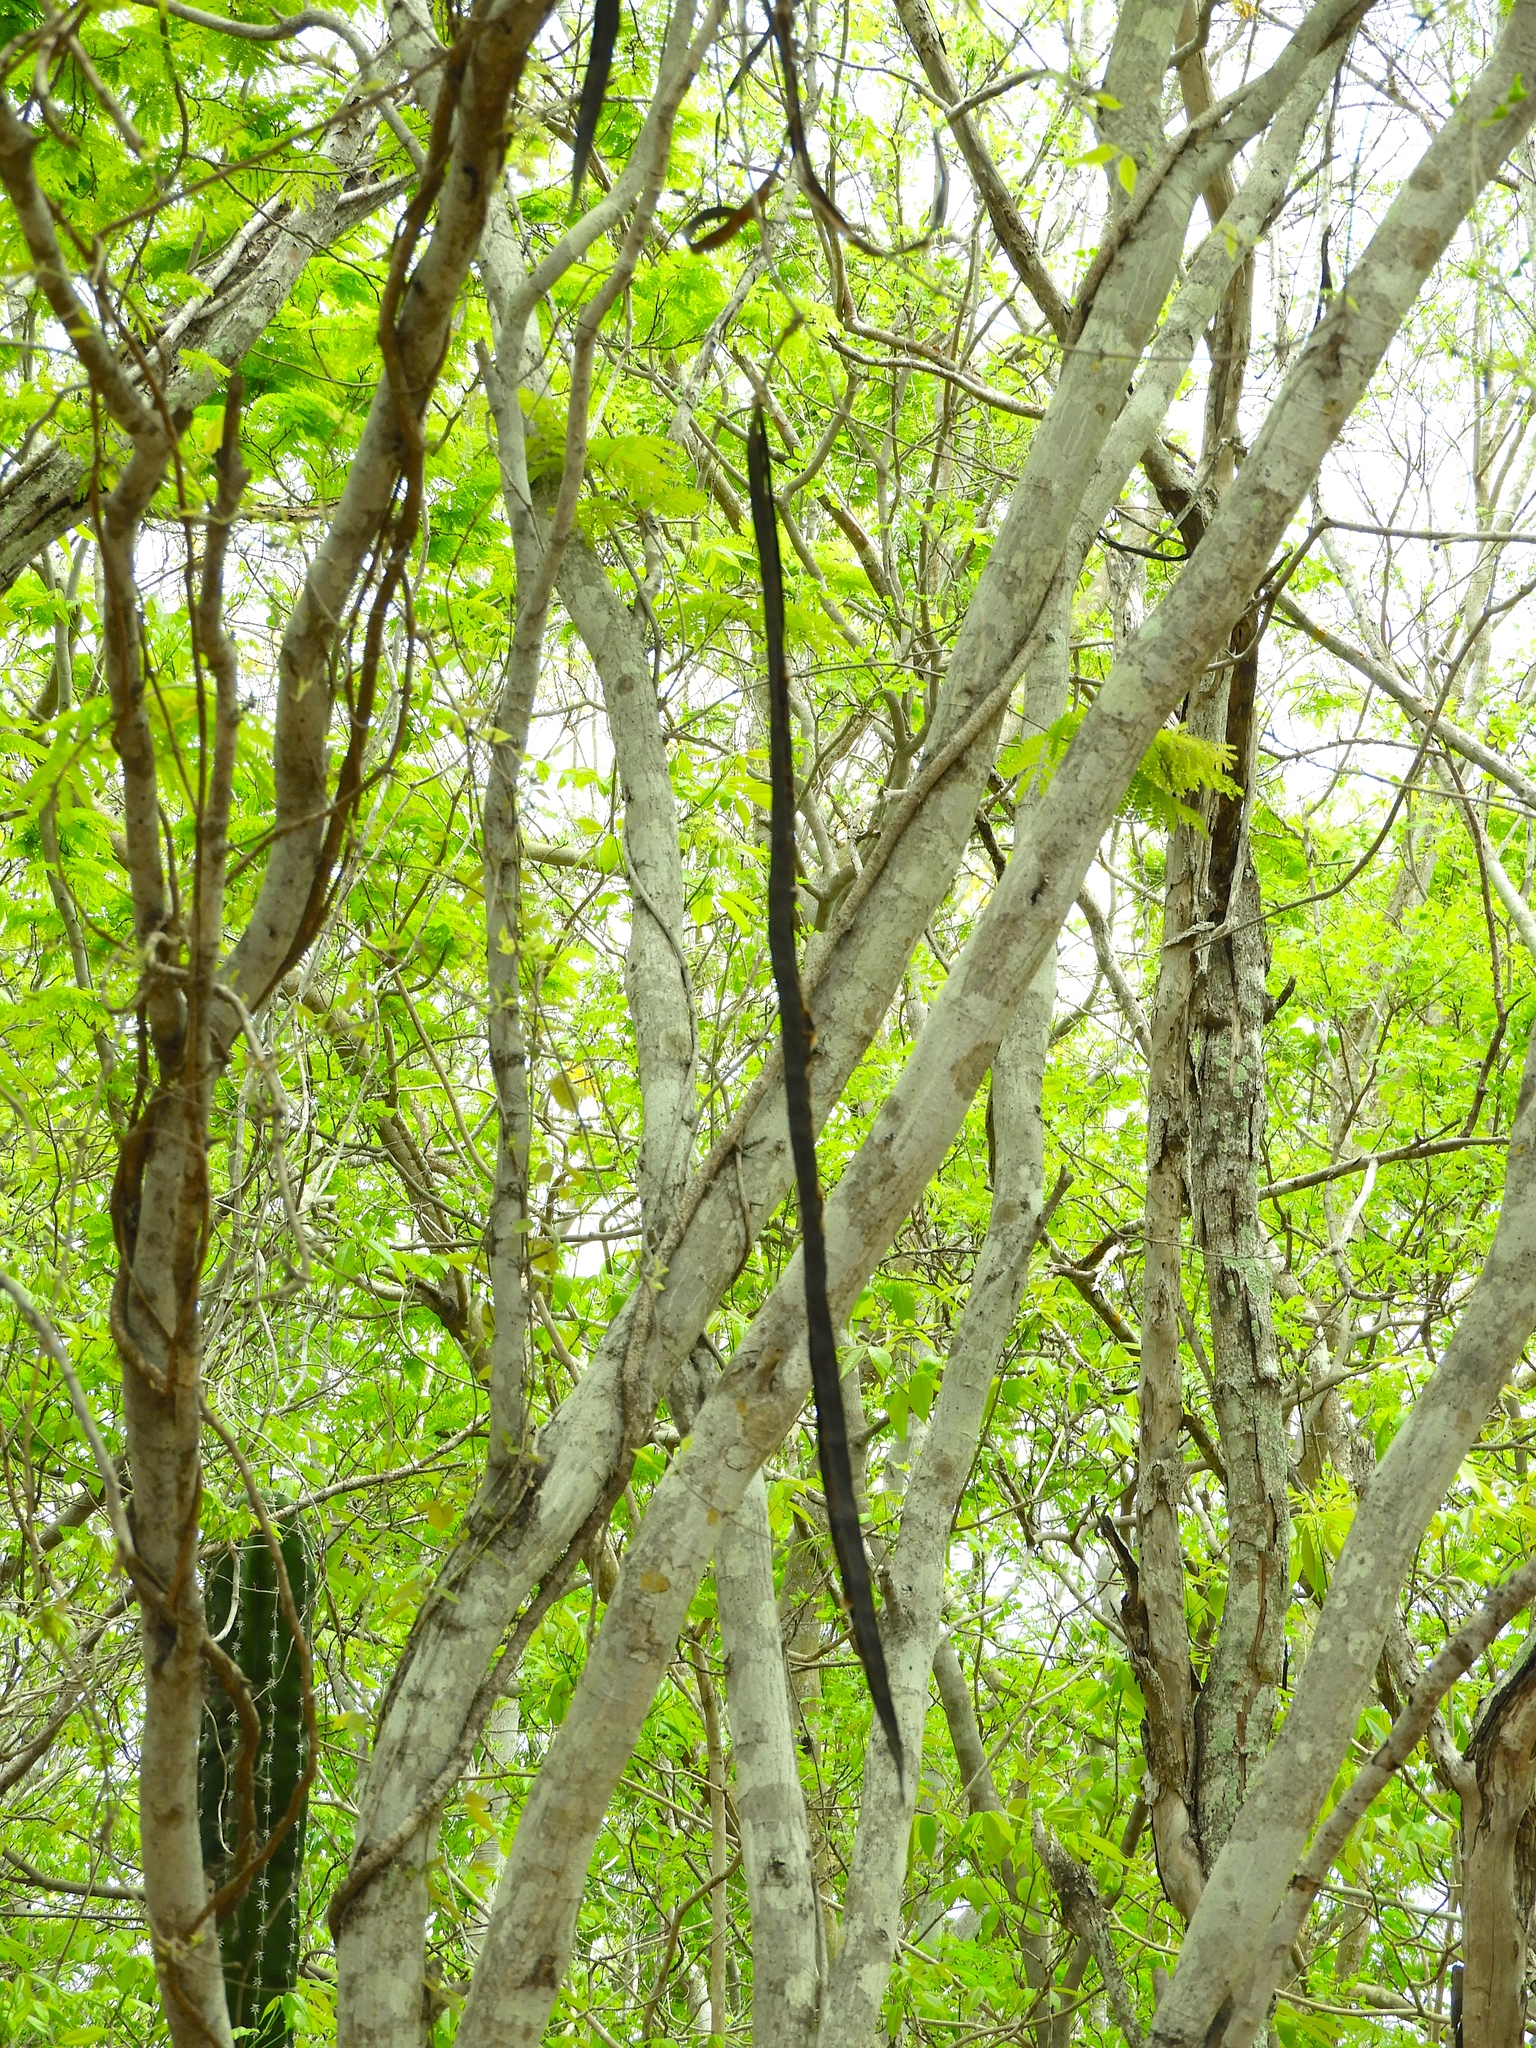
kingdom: Plantae
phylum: Tracheophyta
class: Magnoliopsida
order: Lamiales
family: Bignoniaceae
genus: Dolichandra
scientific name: Dolichandra unguis-cati
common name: Catclaw vine
